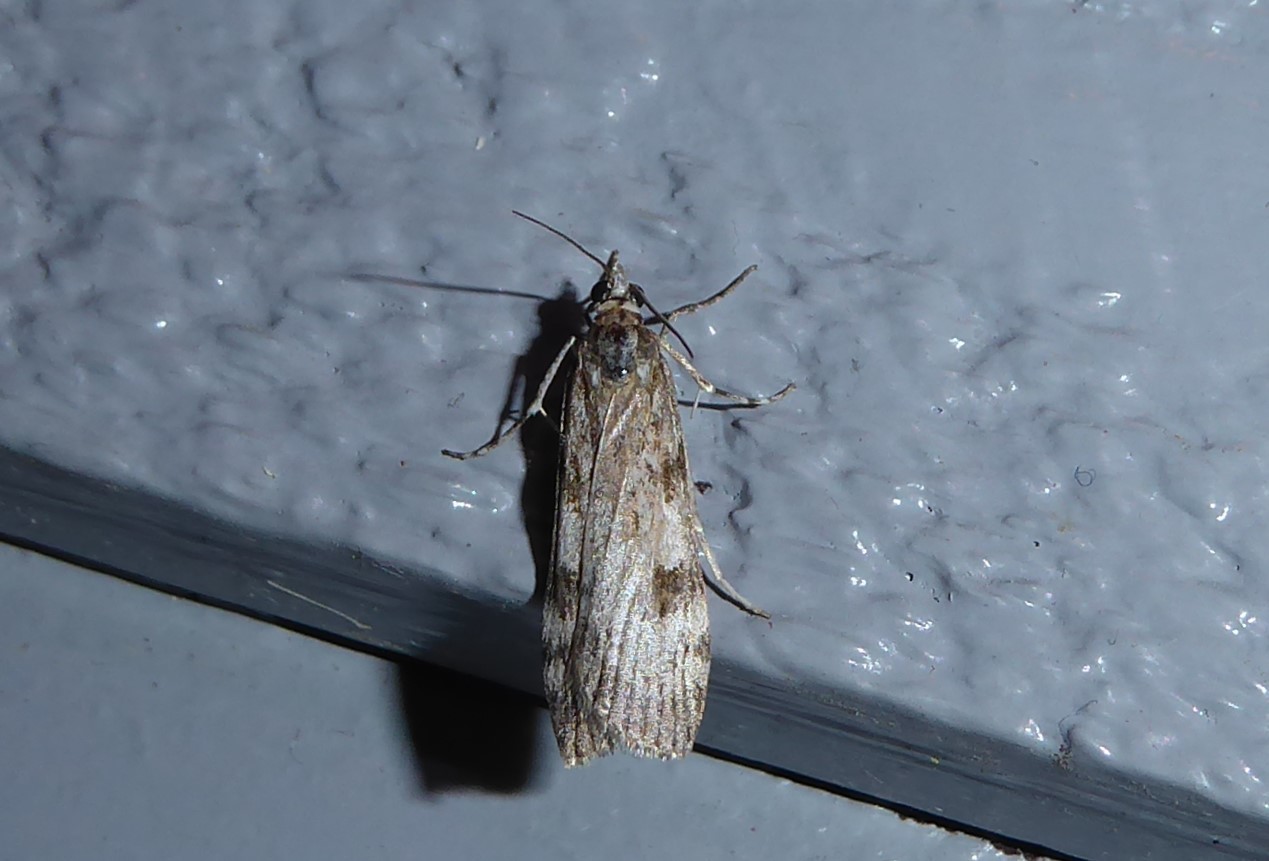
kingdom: Animalia
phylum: Arthropoda
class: Insecta
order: Lepidoptera
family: Crambidae
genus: Scoparia
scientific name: Scoparia halopis
